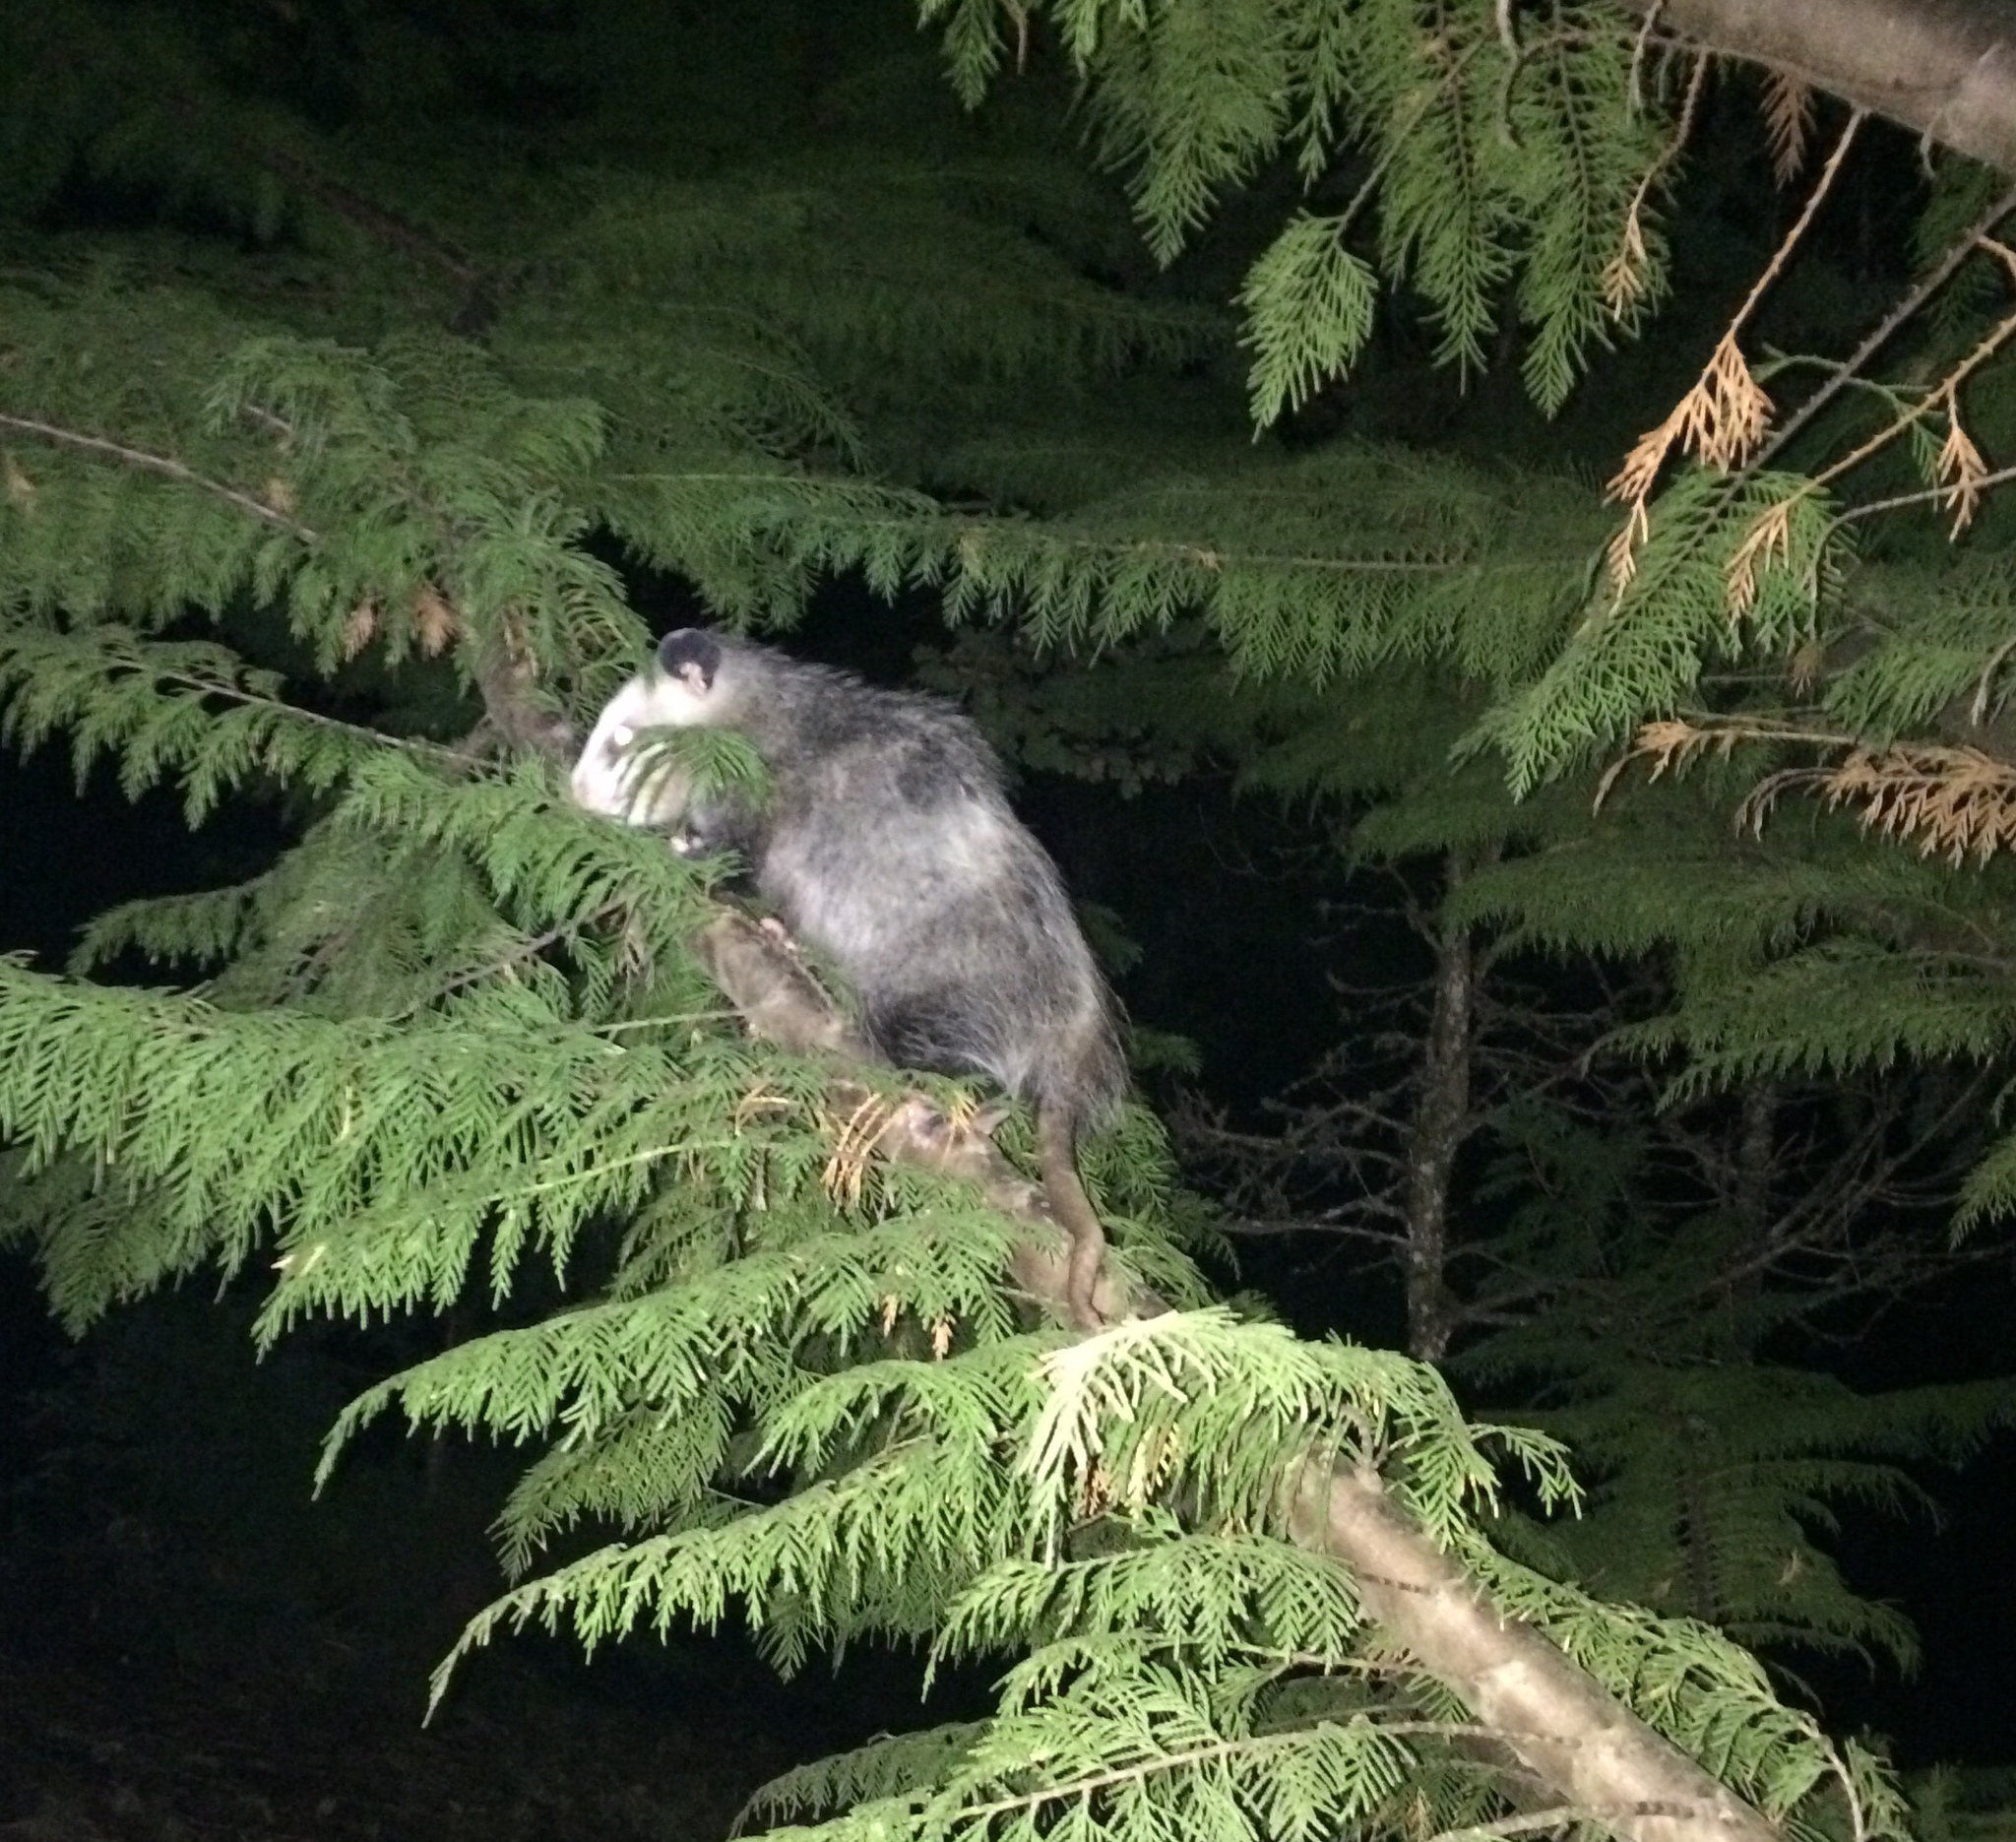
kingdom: Animalia
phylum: Chordata
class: Mammalia
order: Didelphimorphia
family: Didelphidae
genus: Didelphis
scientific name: Didelphis virginiana
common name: Virginia opossum
